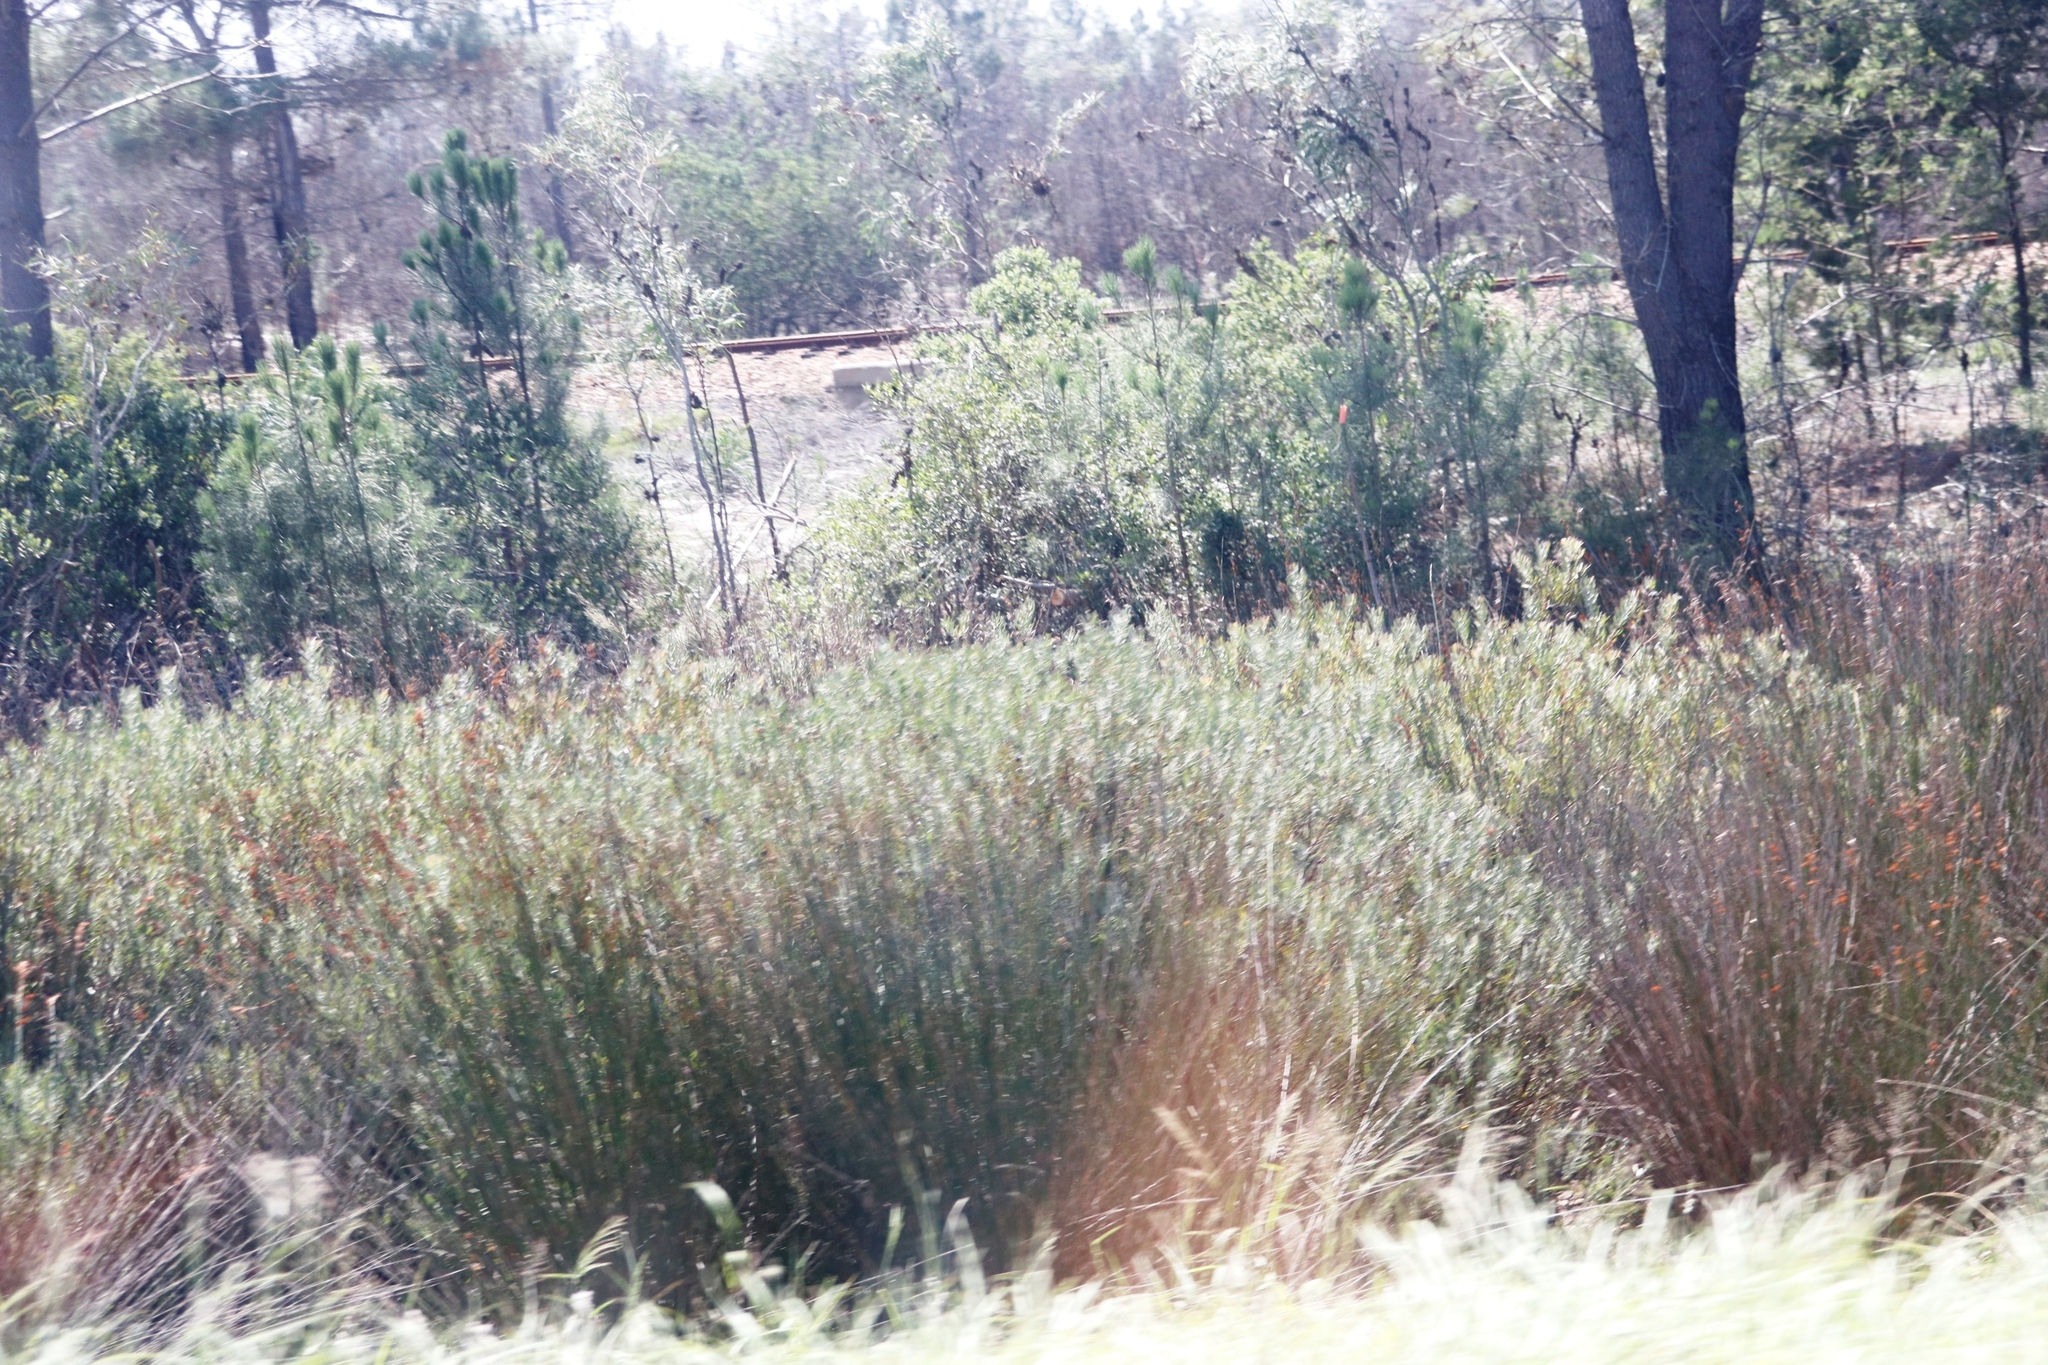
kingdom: Plantae
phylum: Tracheophyta
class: Magnoliopsida
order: Proteales
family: Proteaceae
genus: Leucospermum
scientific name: Leucospermum praecox
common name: Mossel bay pincushion
